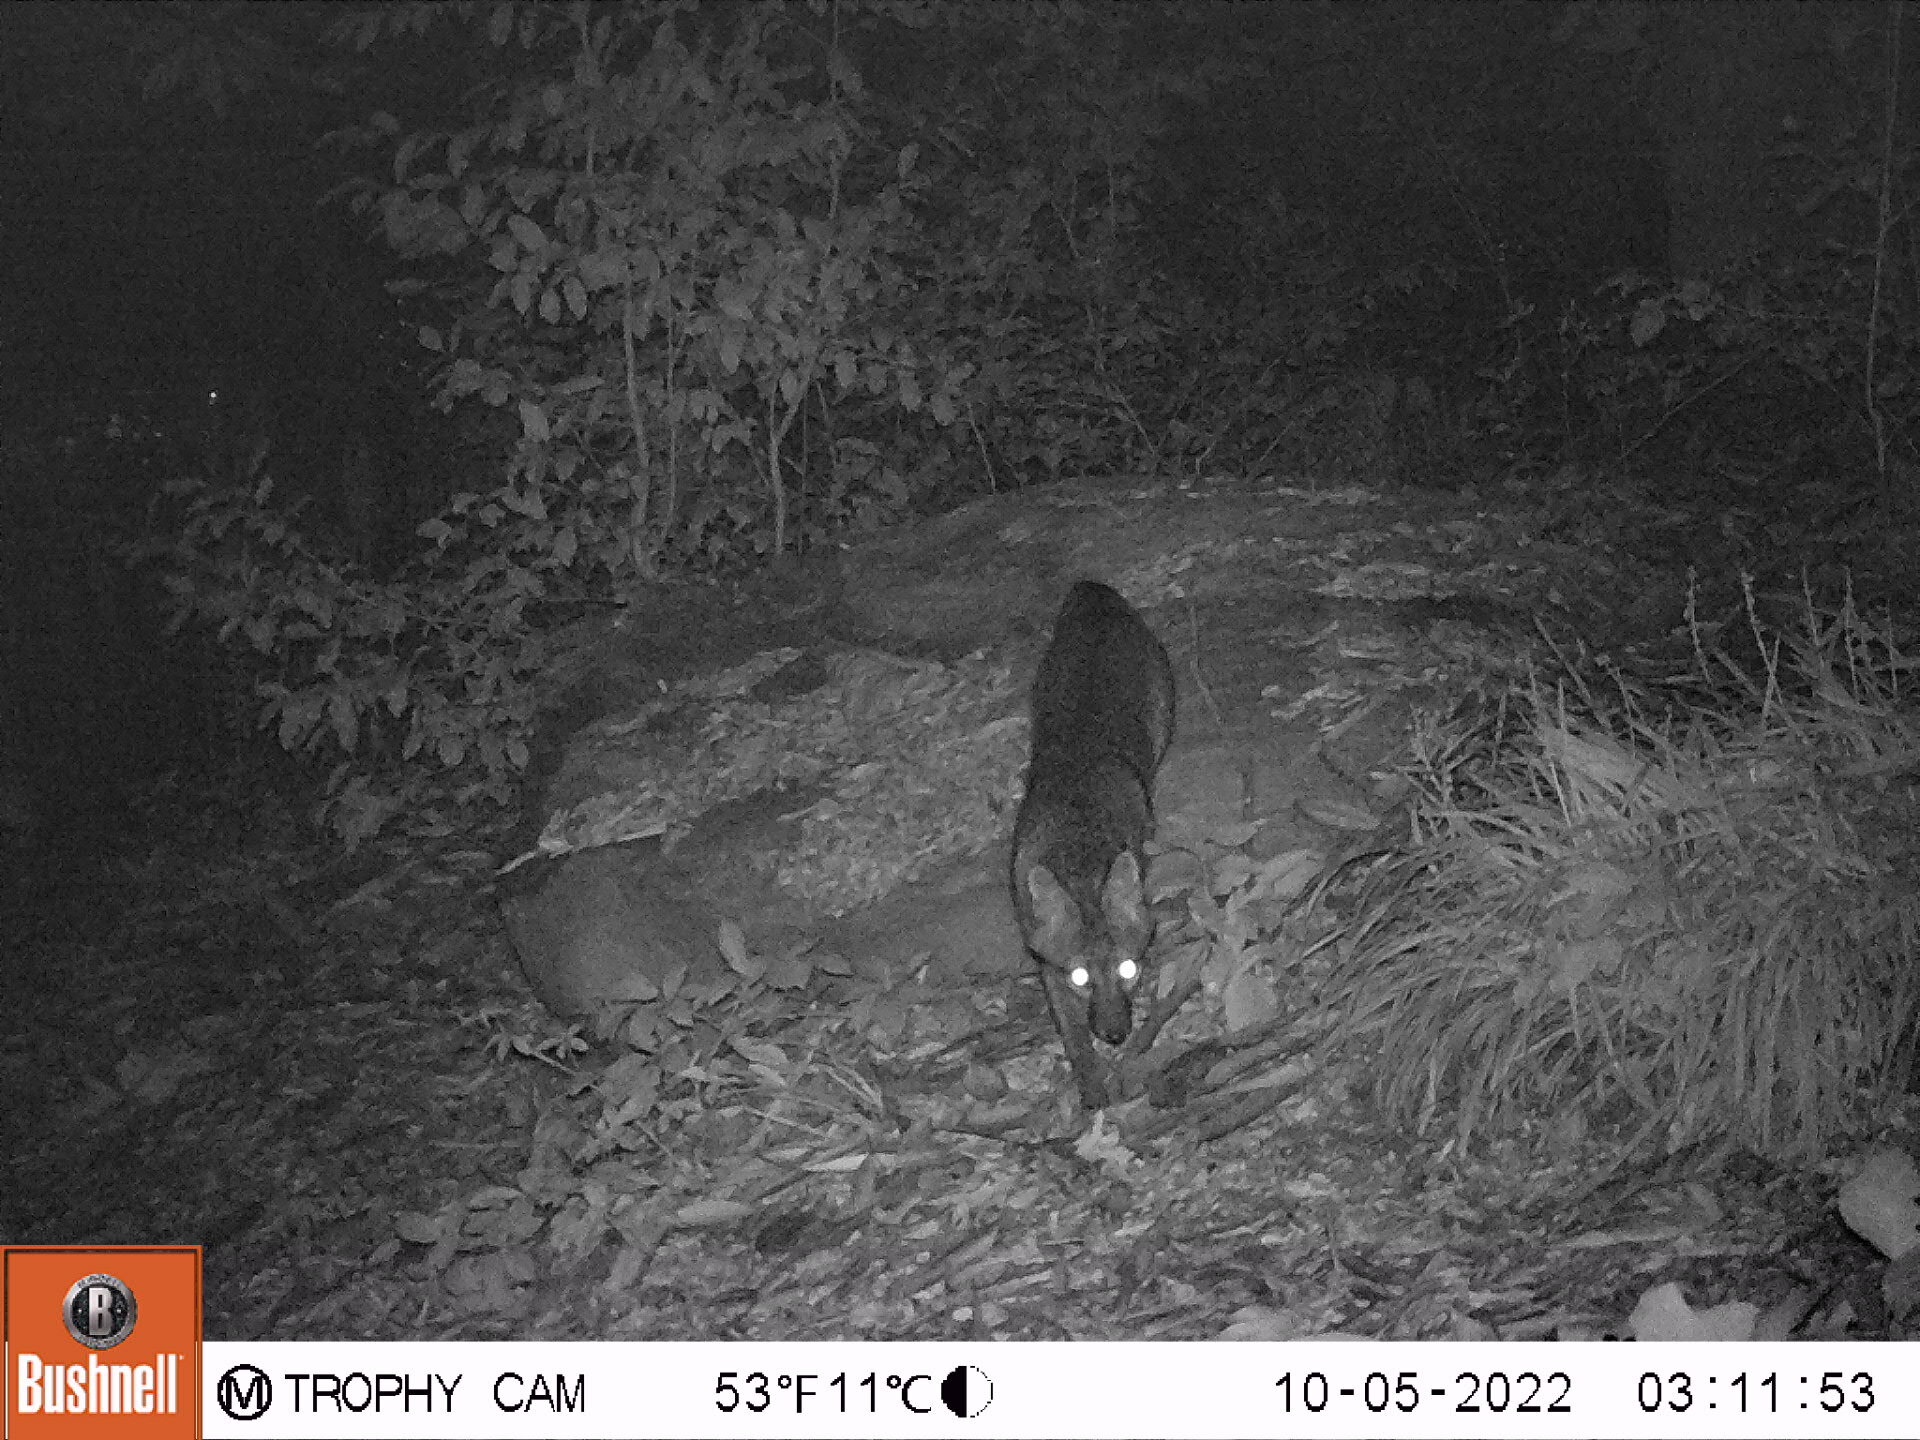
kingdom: Animalia
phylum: Chordata
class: Mammalia
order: Carnivora
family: Canidae
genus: Urocyon
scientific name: Urocyon cinereoargenteus
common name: Gray fox
